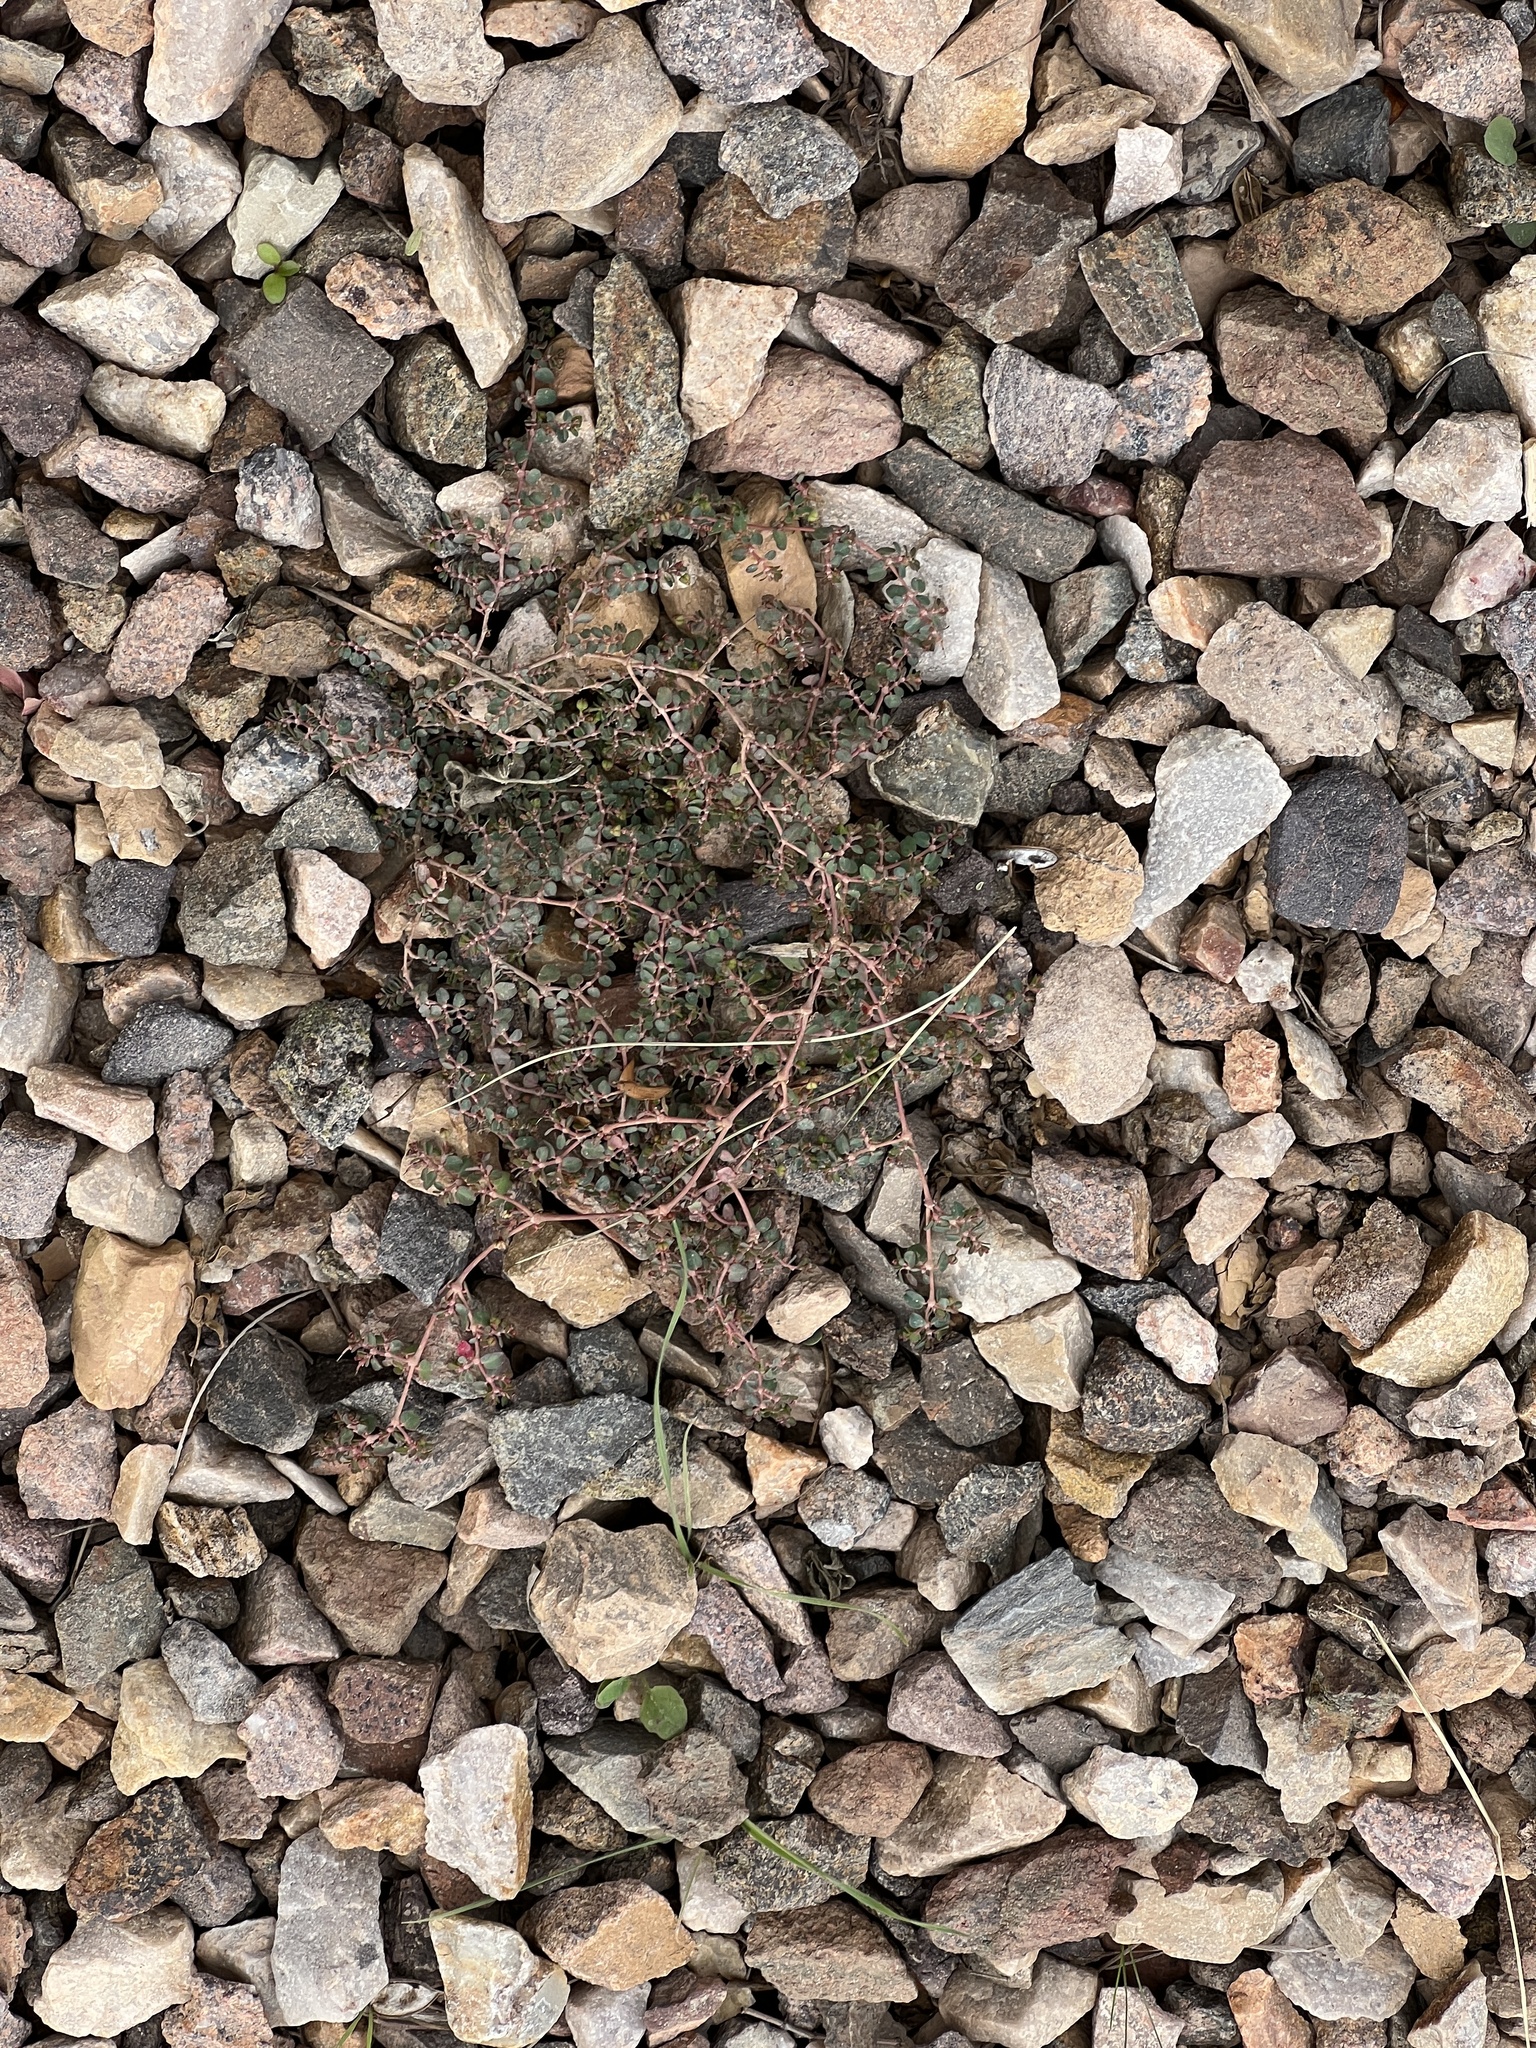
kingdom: Plantae
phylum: Tracheophyta
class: Magnoliopsida
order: Malpighiales
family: Euphorbiaceae
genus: Euphorbia
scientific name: Euphorbia serpens
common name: Matted sandmat
